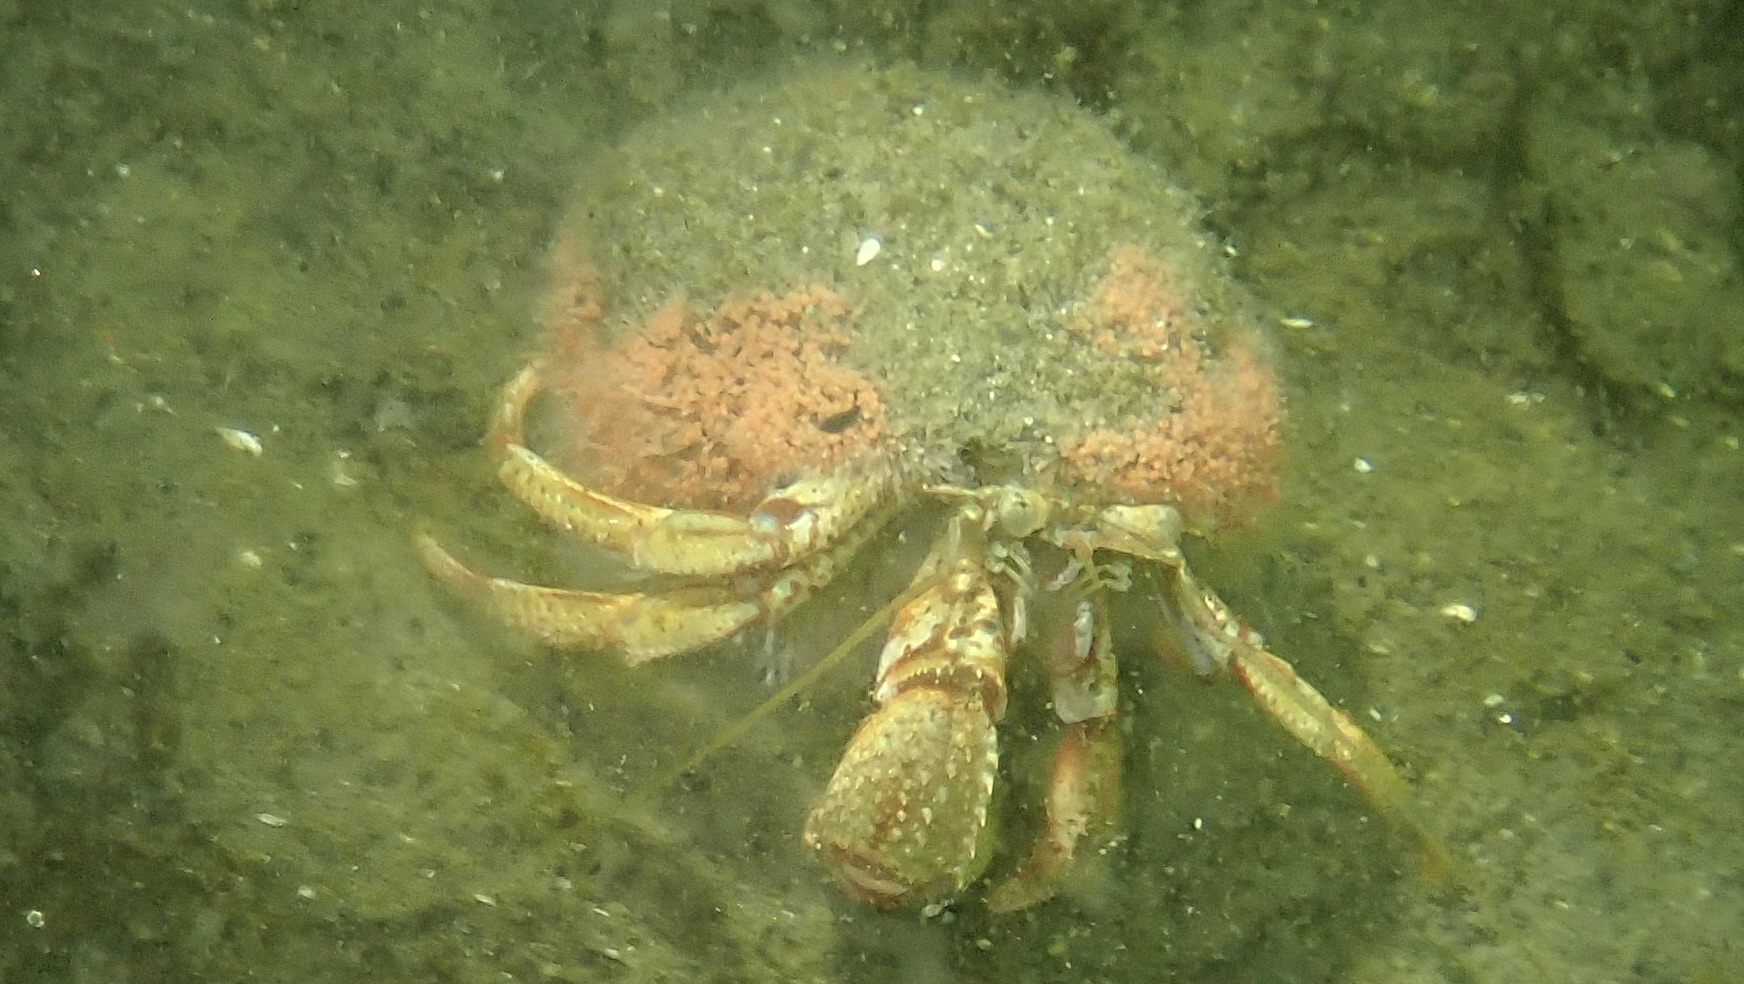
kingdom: Animalia
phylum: Arthropoda
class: Malacostraca
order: Decapoda
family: Paguridae
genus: Pagurus
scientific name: Pagurus bernhardus
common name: Hermit crab
